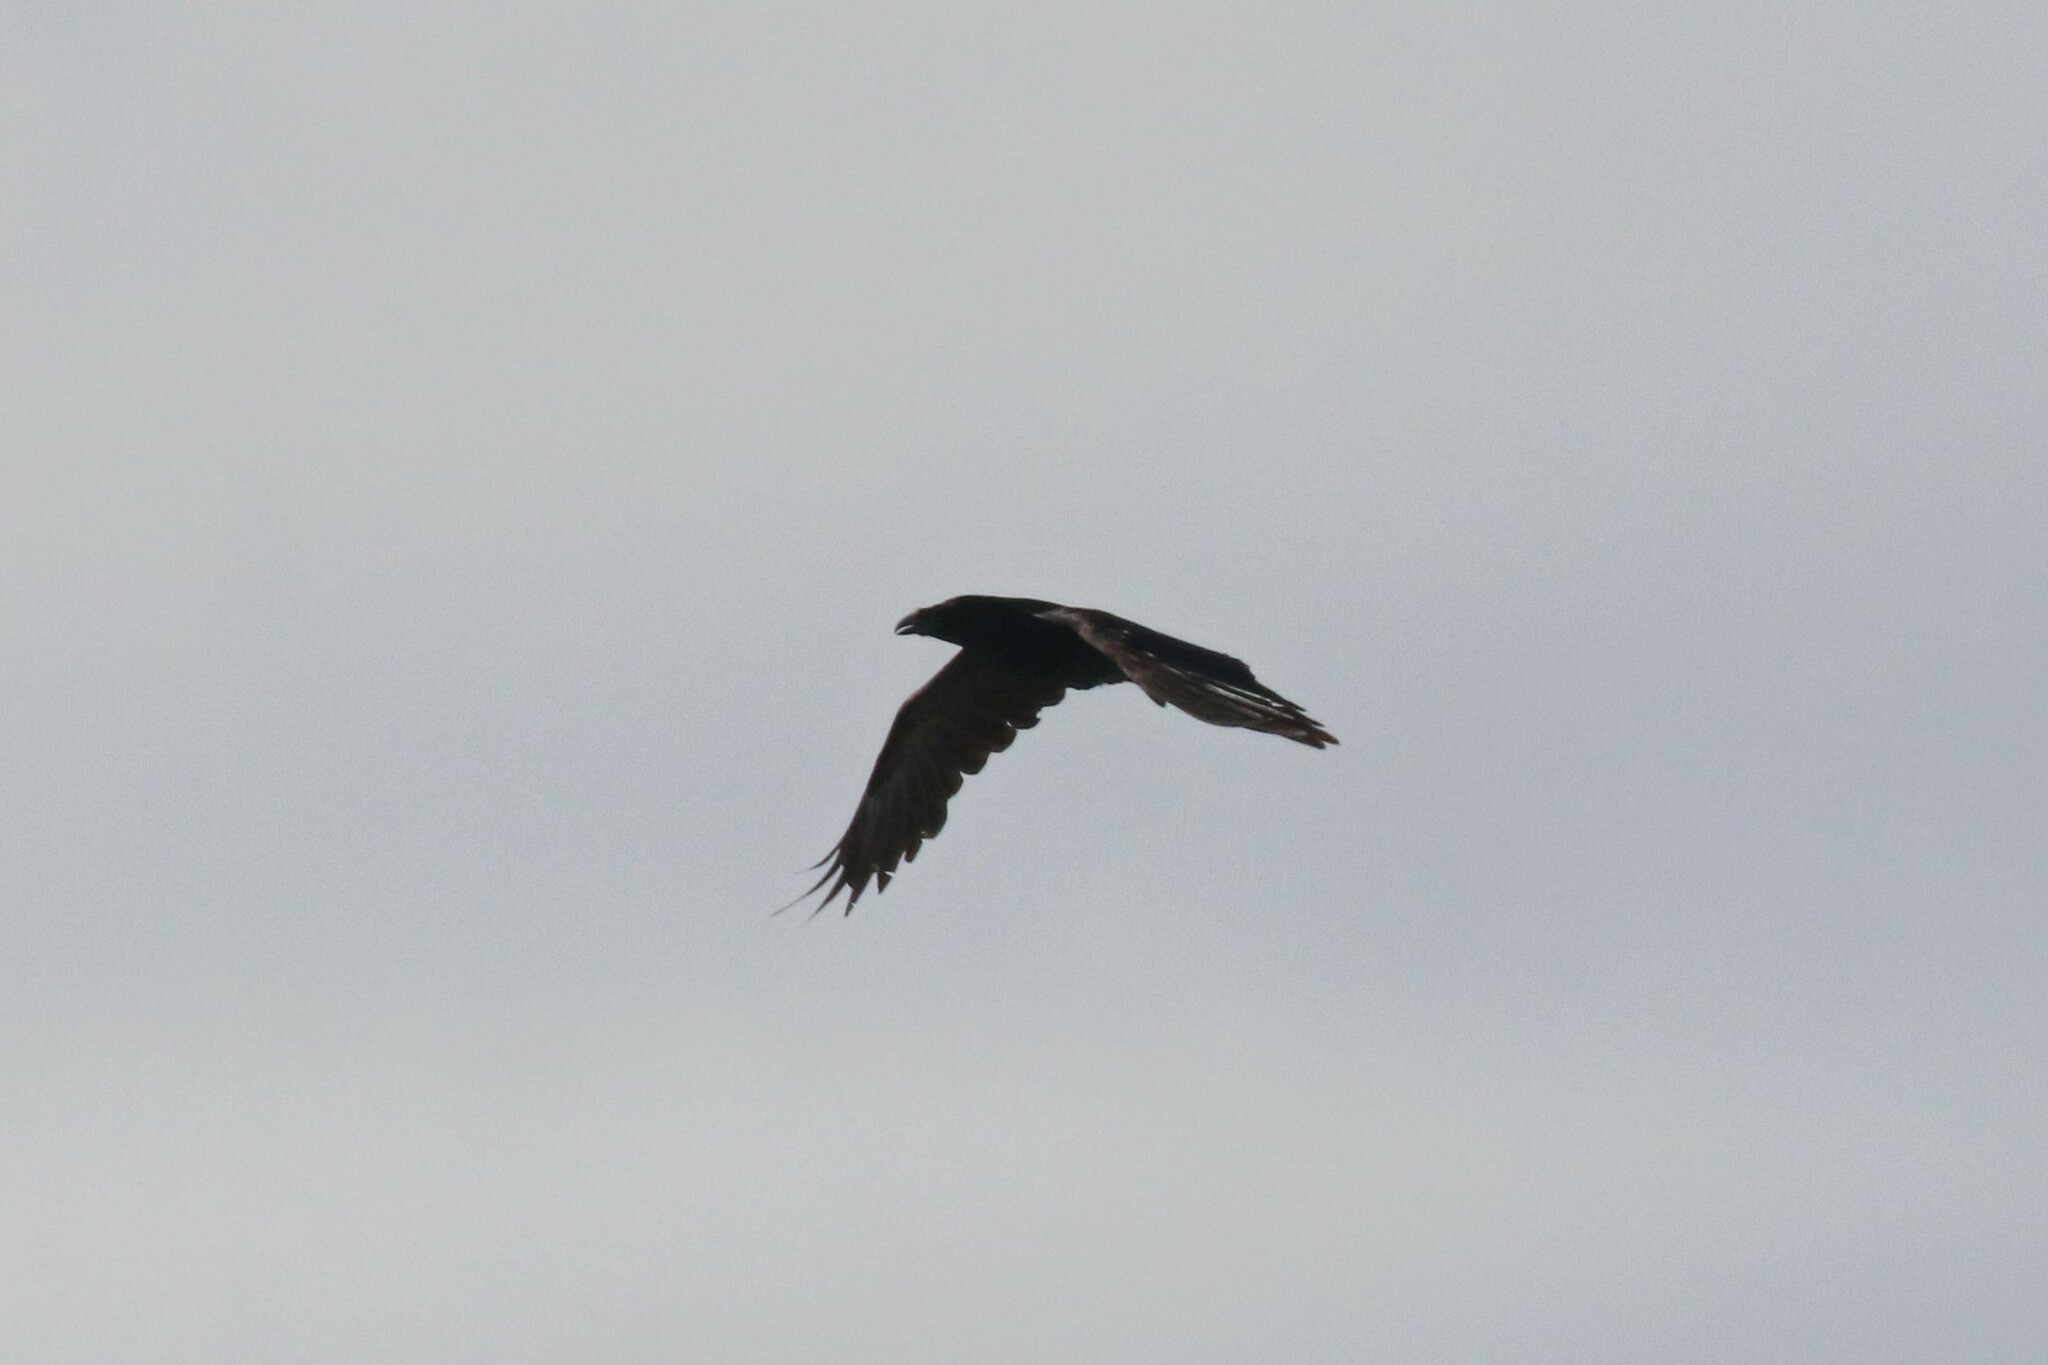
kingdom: Animalia
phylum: Chordata
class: Aves
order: Passeriformes
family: Corvidae
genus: Corvus
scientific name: Corvus corax
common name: Common raven
